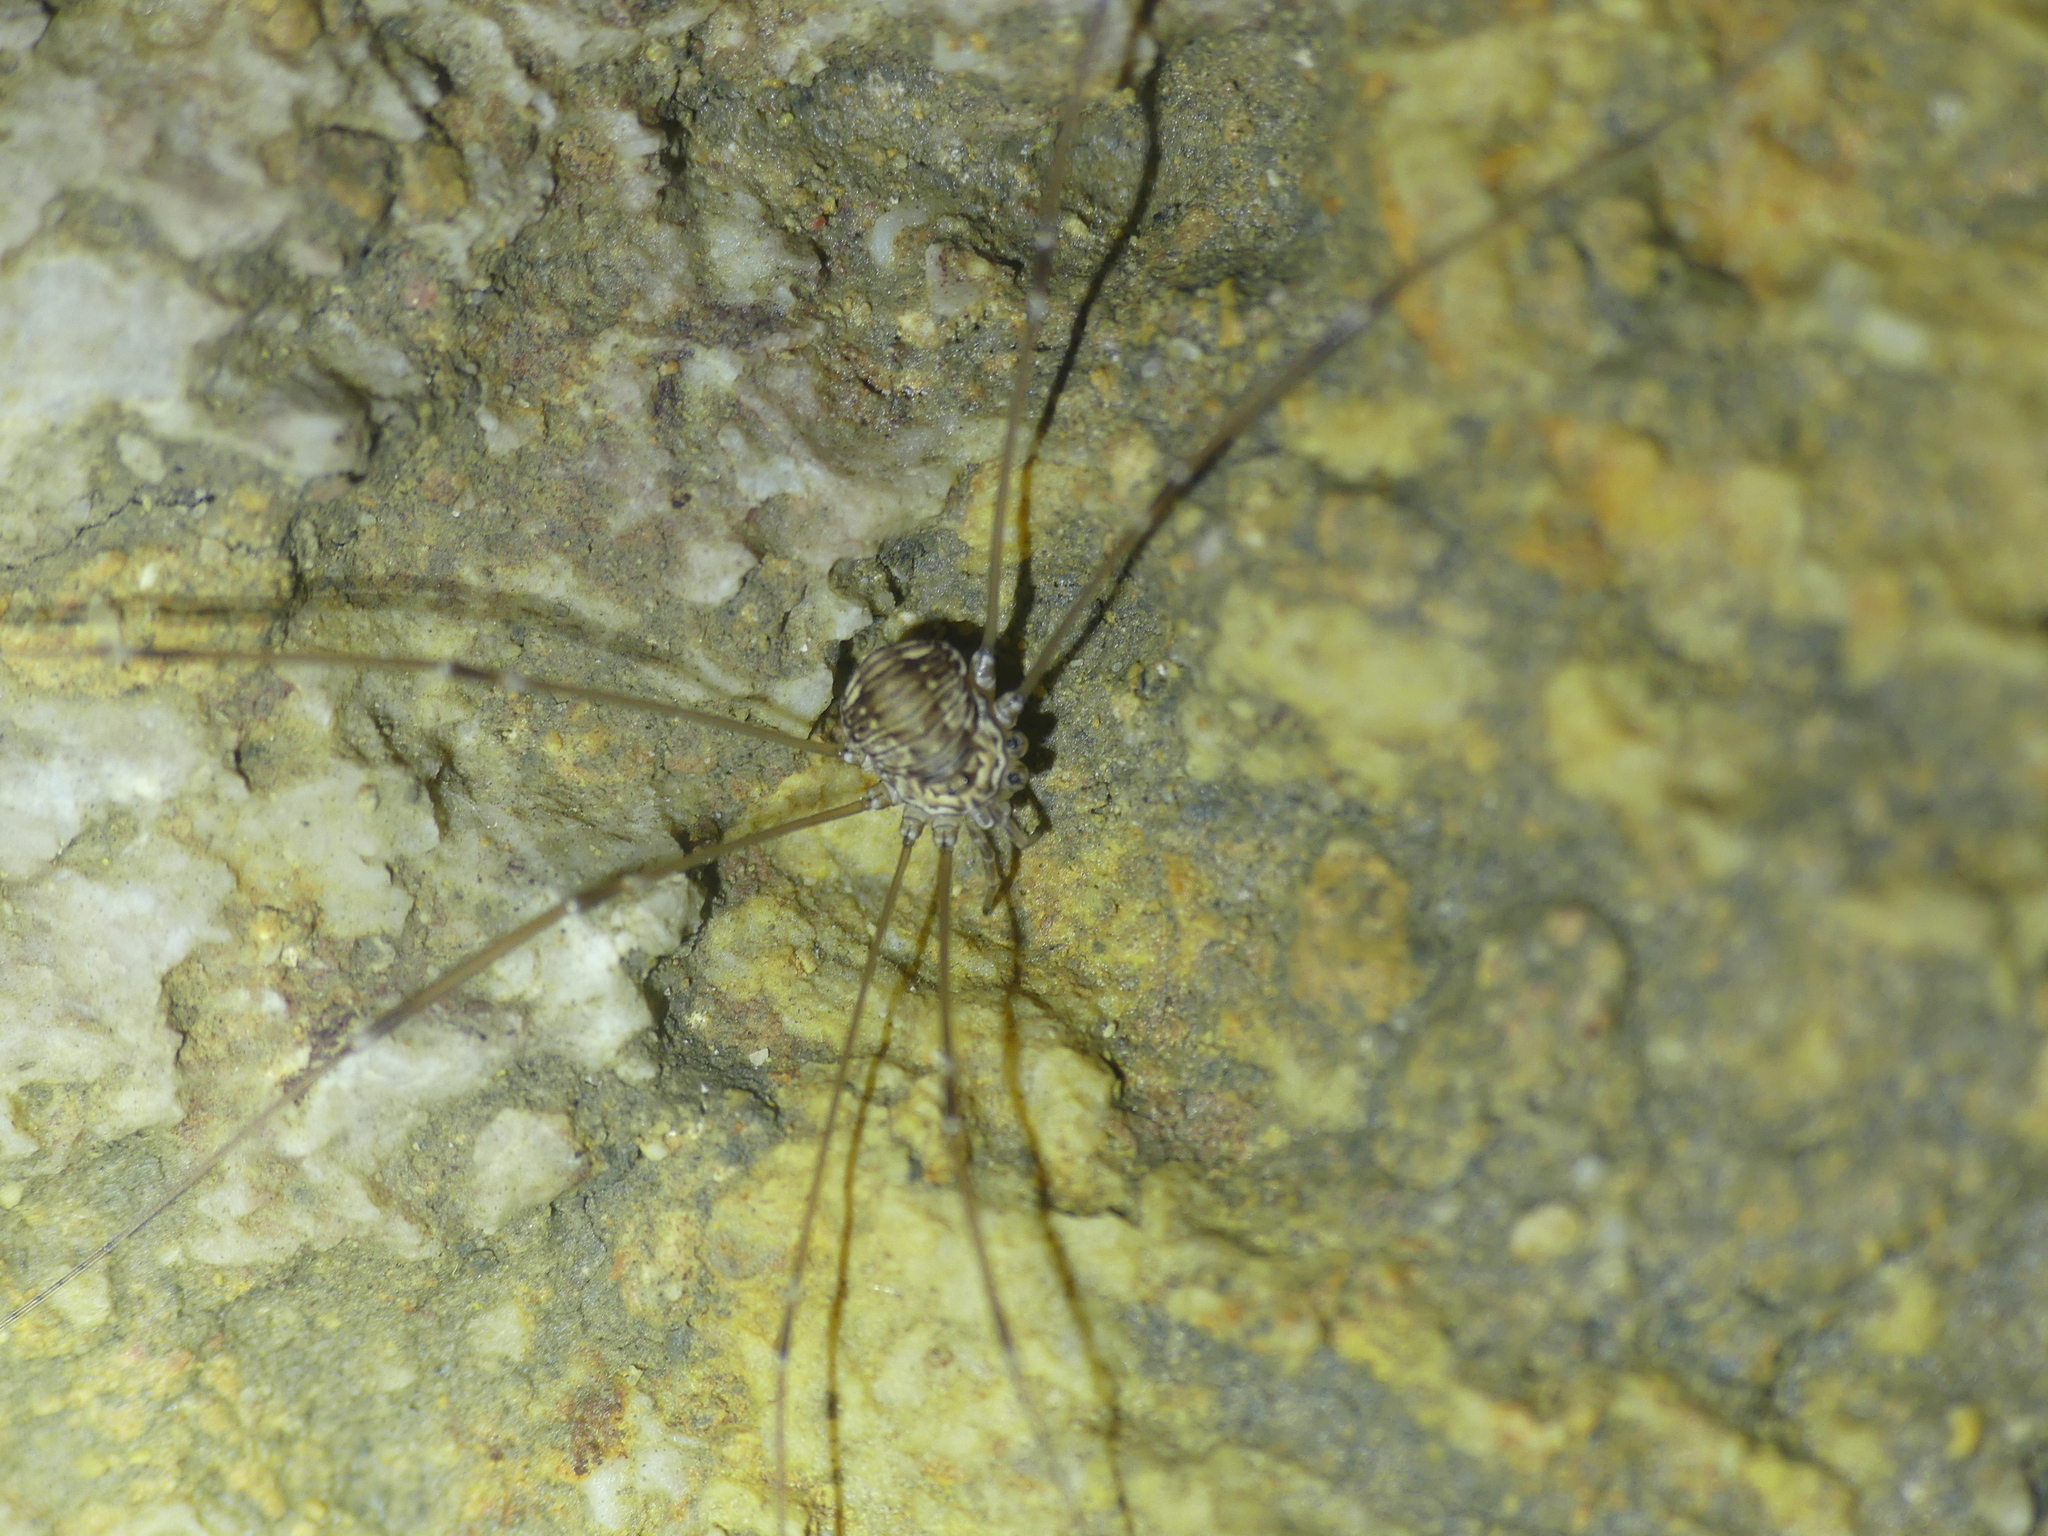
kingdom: Animalia
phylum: Arthropoda
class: Arachnida
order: Opiliones
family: Sclerosomatidae
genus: Leiobunum
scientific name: Leiobunum limbatum
